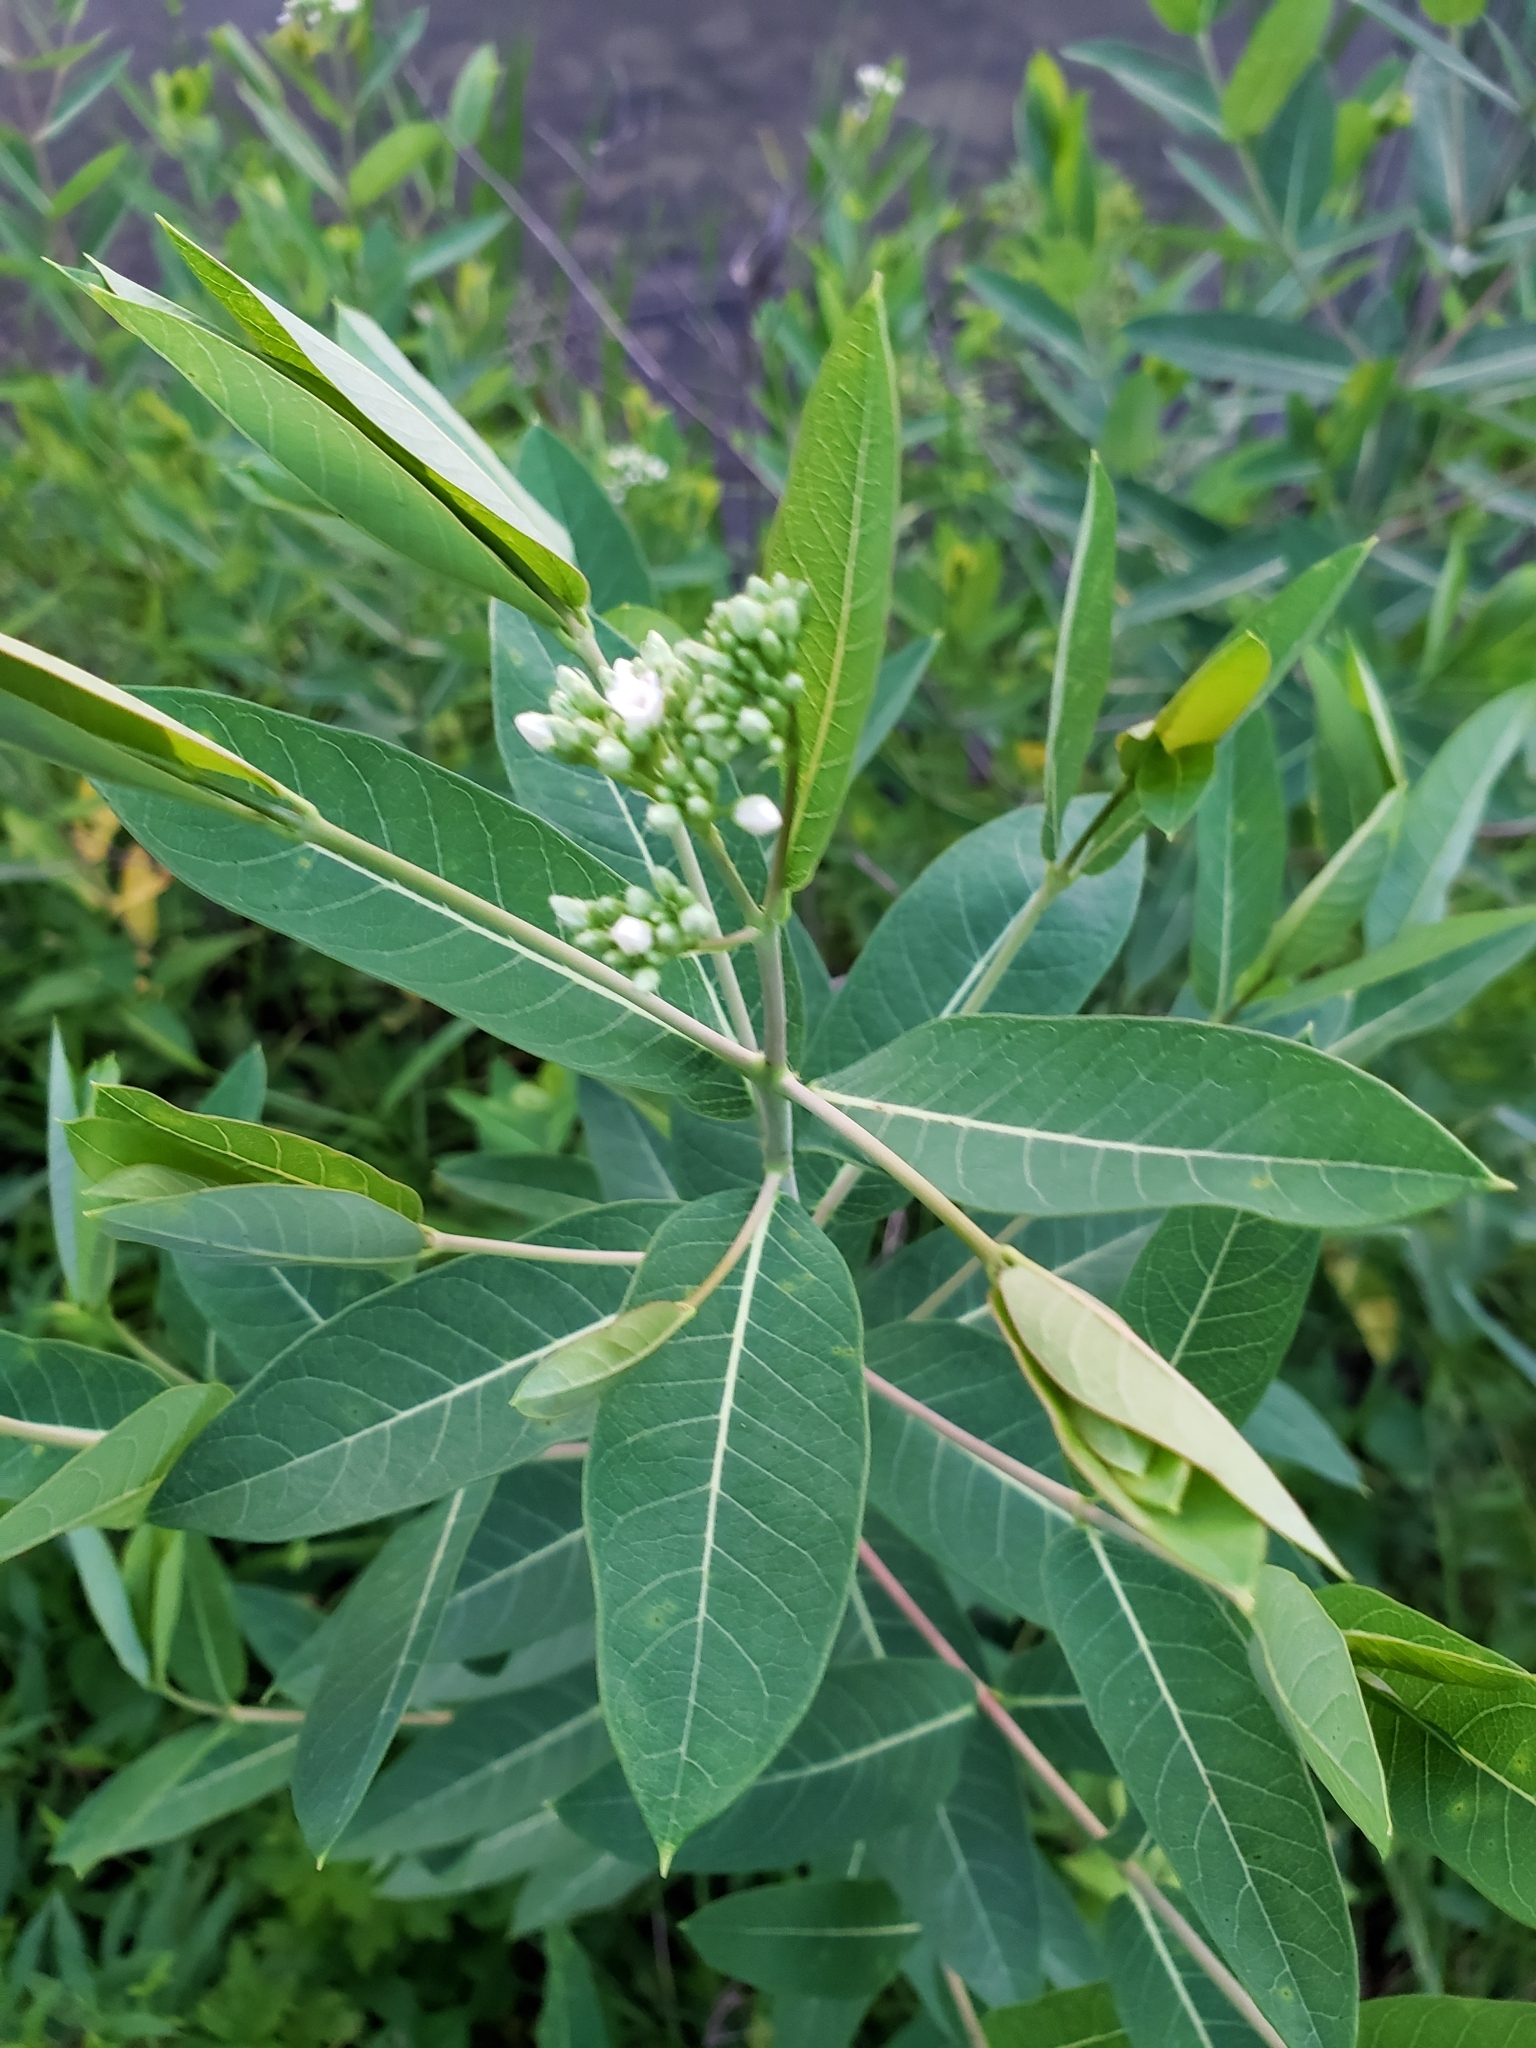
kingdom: Plantae
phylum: Tracheophyta
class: Magnoliopsida
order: Gentianales
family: Apocynaceae
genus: Apocynum
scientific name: Apocynum cannabinum
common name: Hemp dogbane
